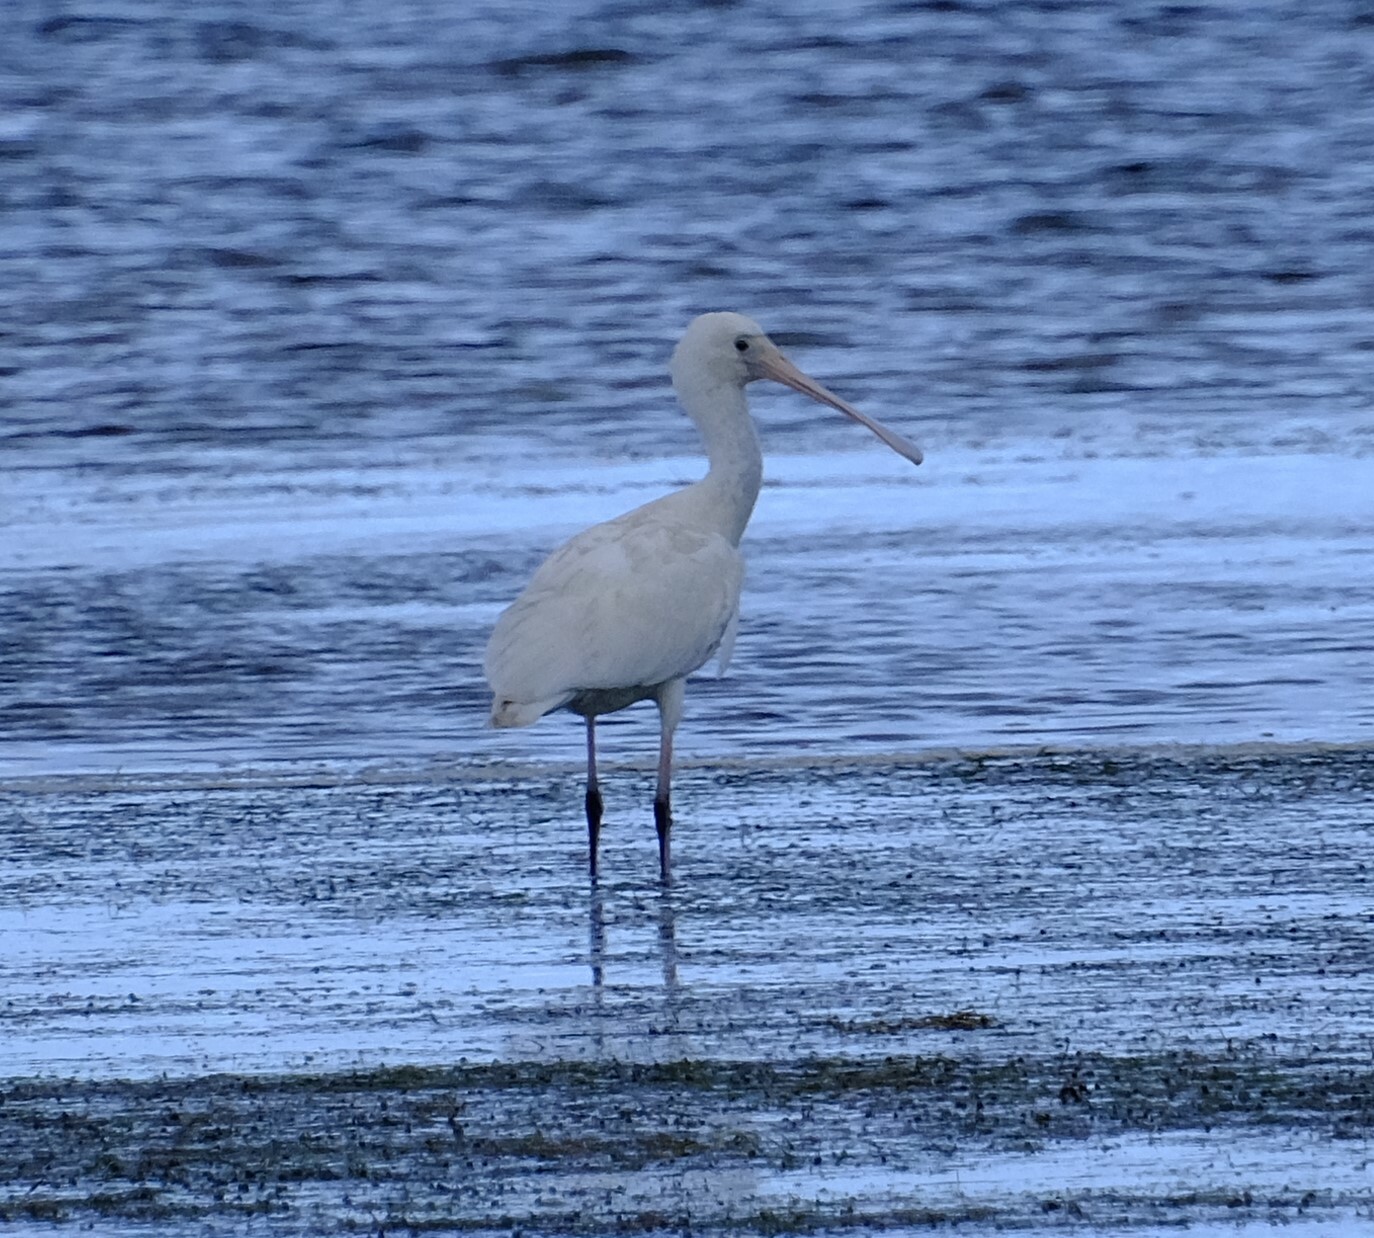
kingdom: Animalia
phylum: Chordata
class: Aves
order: Pelecaniformes
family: Threskiornithidae
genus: Platalea
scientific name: Platalea flavipes
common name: Yellow-billed spoonbill
